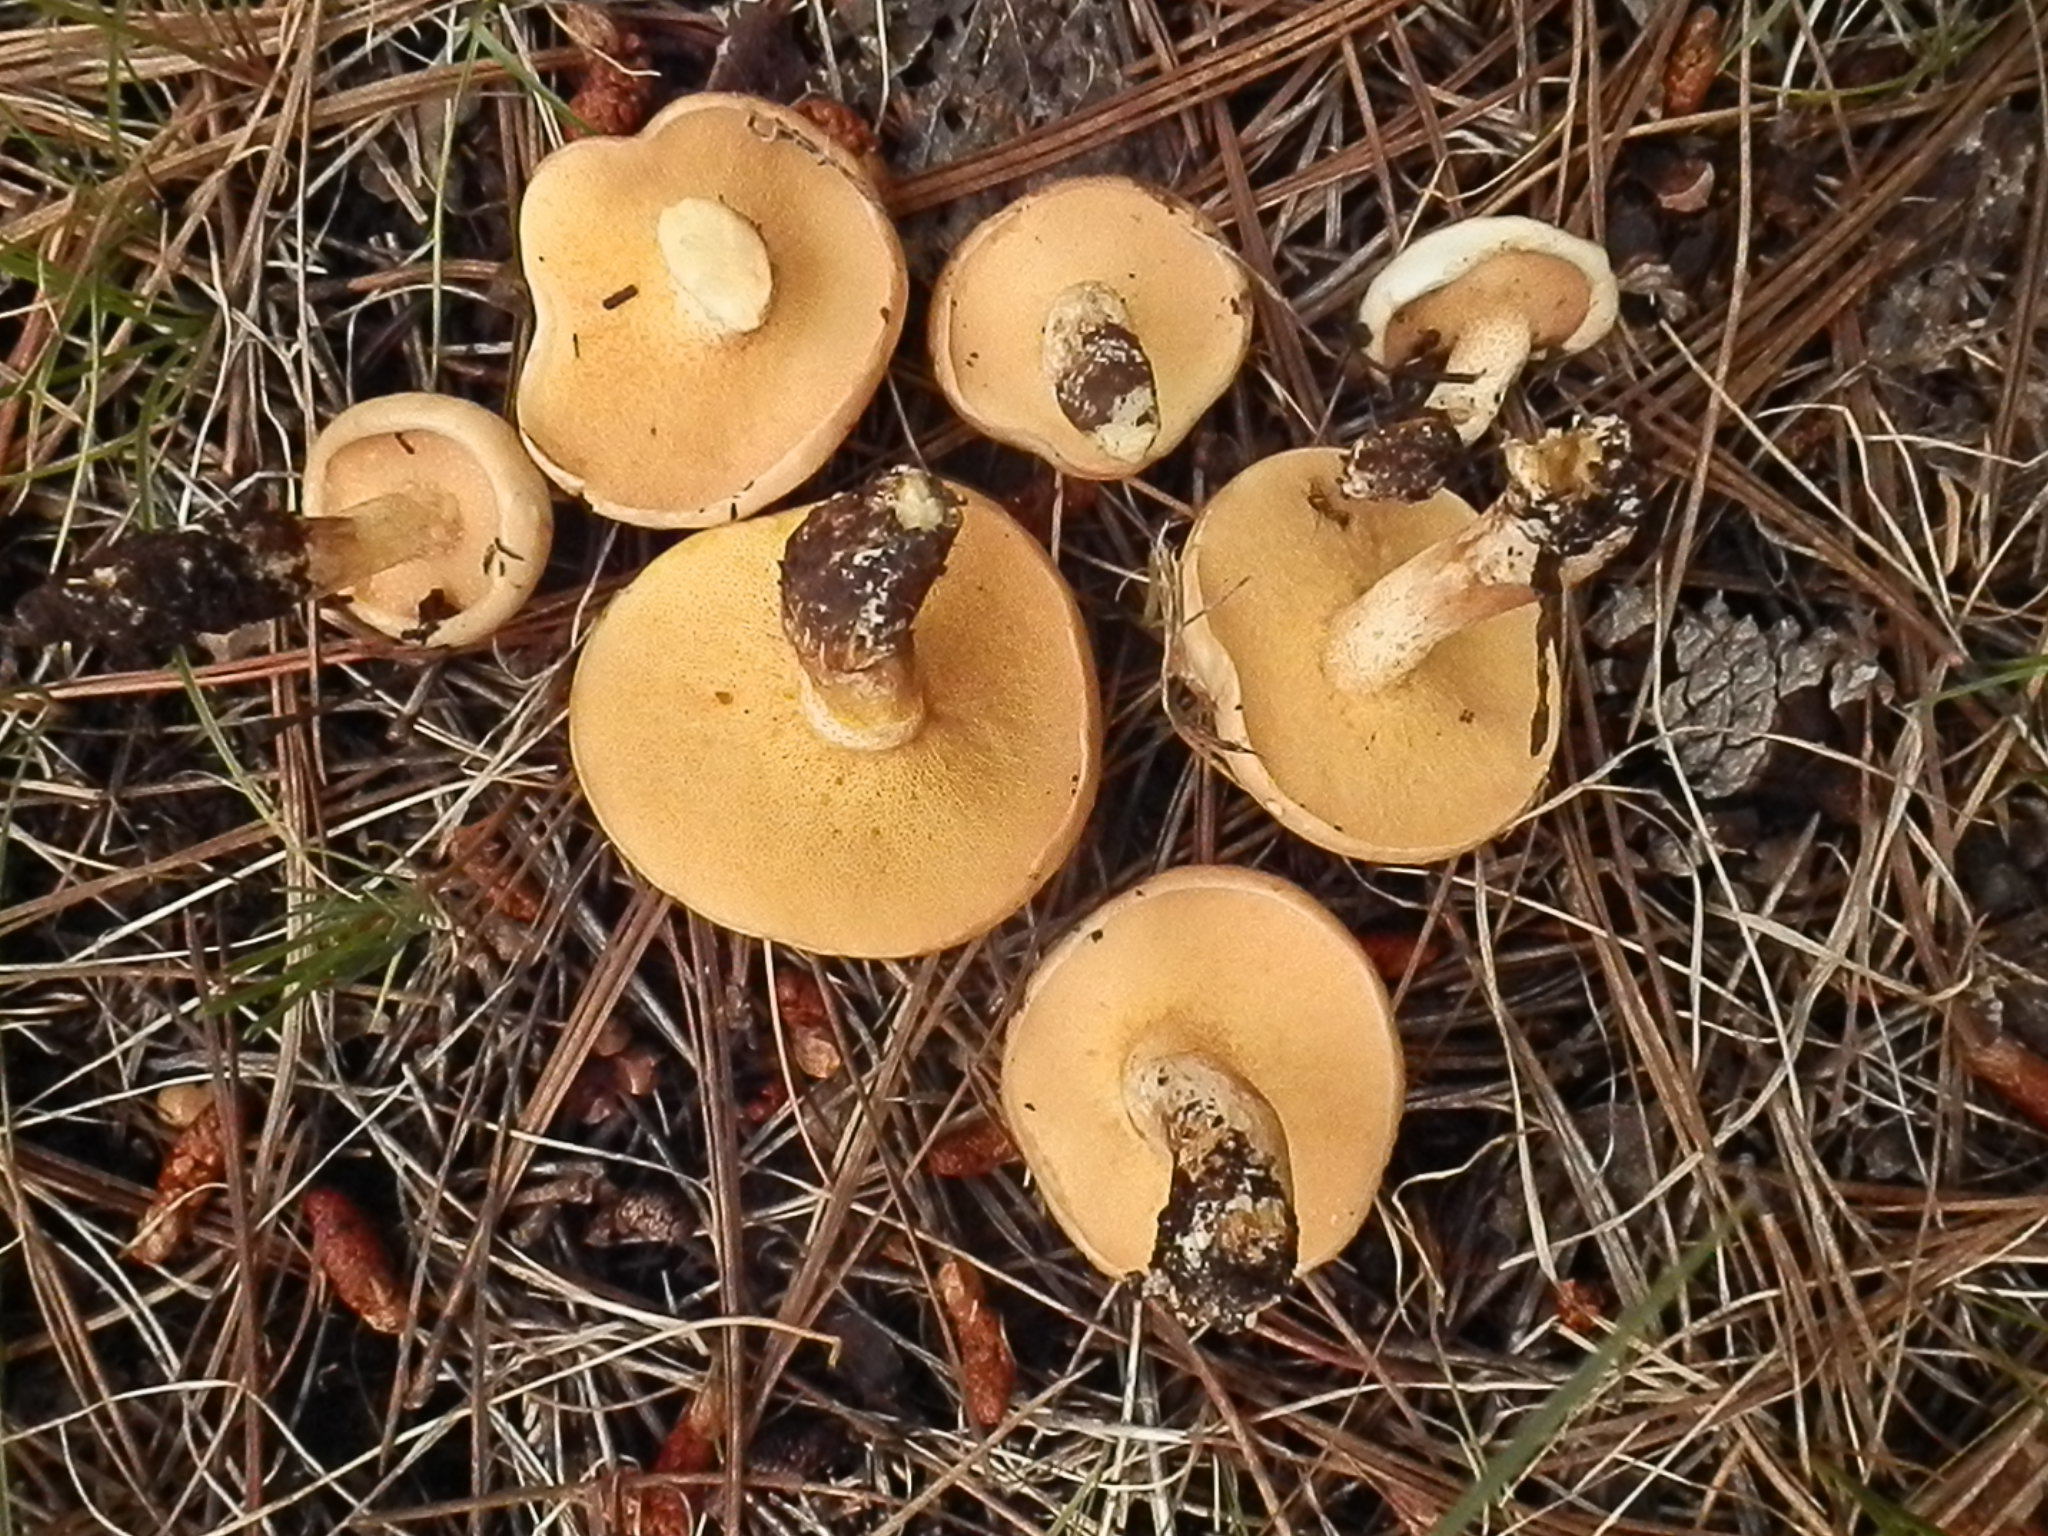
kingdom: Fungi
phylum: Basidiomycota
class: Agaricomycetes
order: Boletales
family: Suillaceae
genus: Suillus
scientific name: Suillus kaibabensis
